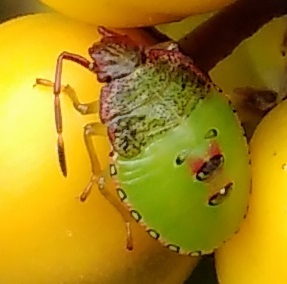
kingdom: Animalia
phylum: Arthropoda
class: Insecta
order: Hemiptera
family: Acanthosomatidae
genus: Acanthosoma
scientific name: Acanthosoma haemorrhoidale
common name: Hawthorn shieldbug
